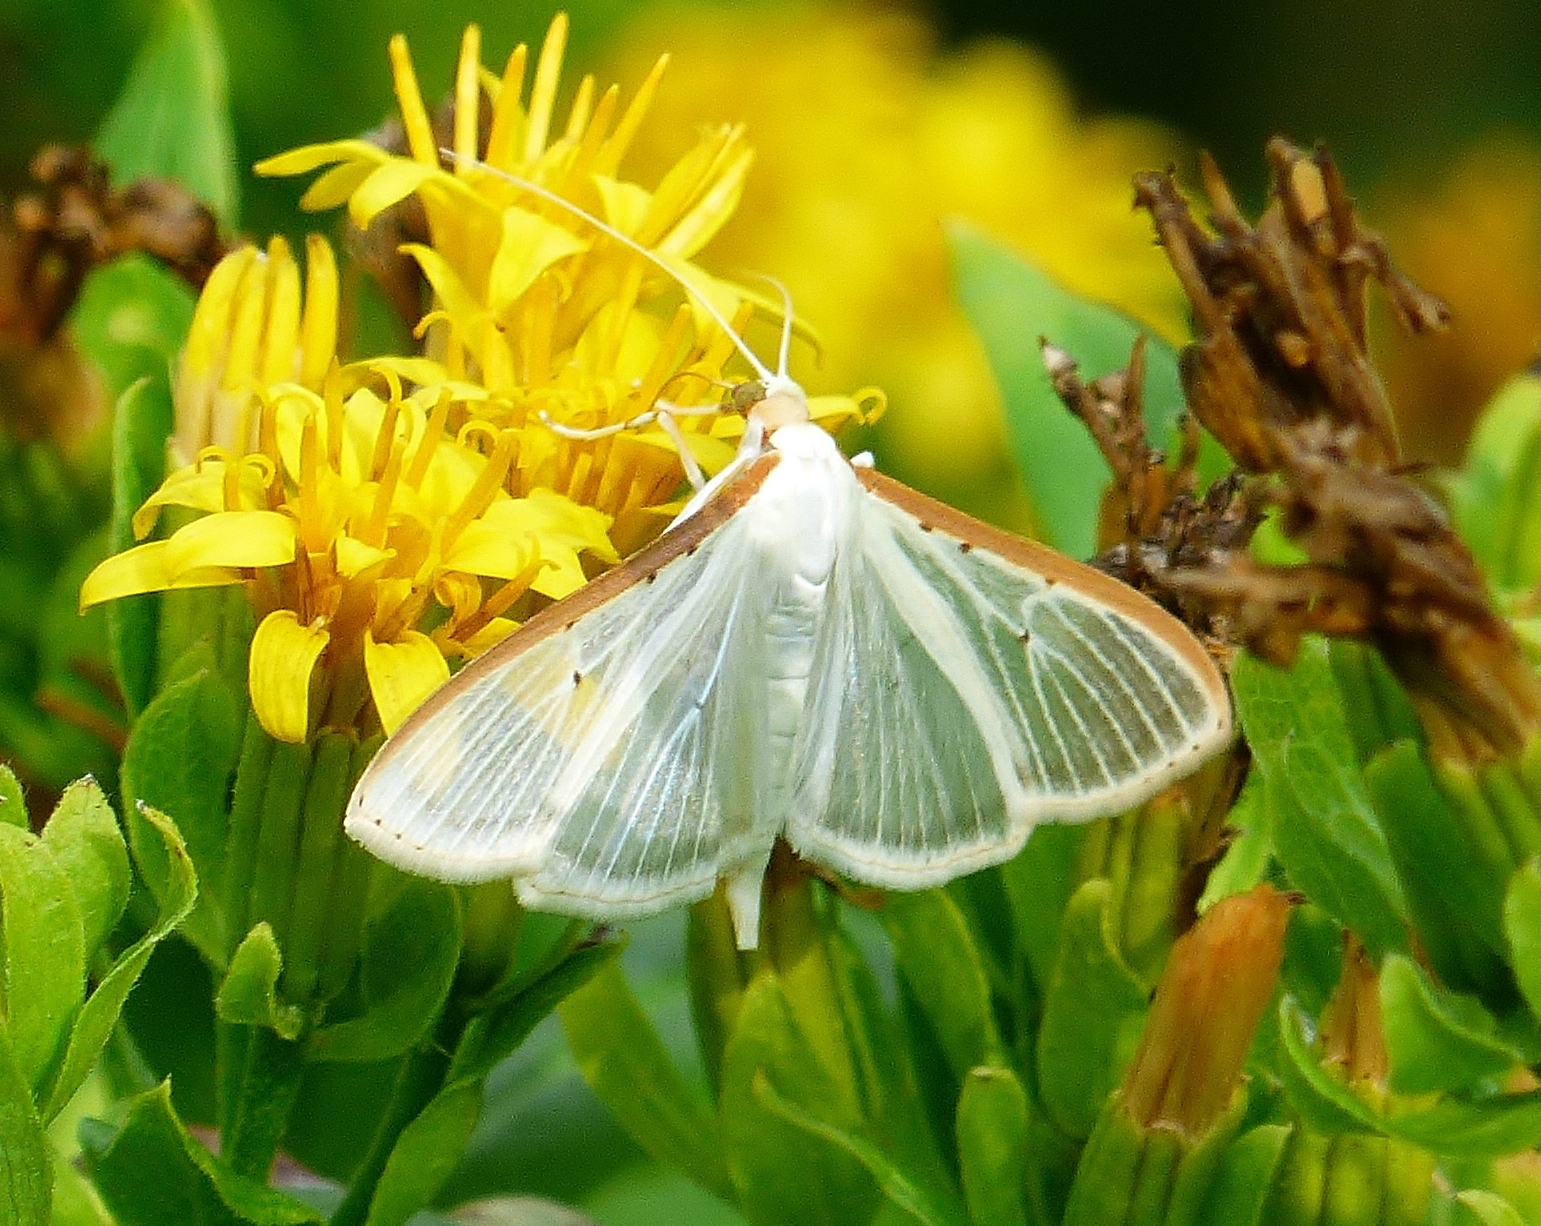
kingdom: Animalia
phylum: Arthropoda
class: Insecta
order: Lepidoptera
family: Crambidae
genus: Palpita
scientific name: Palpita quadristigmalis
